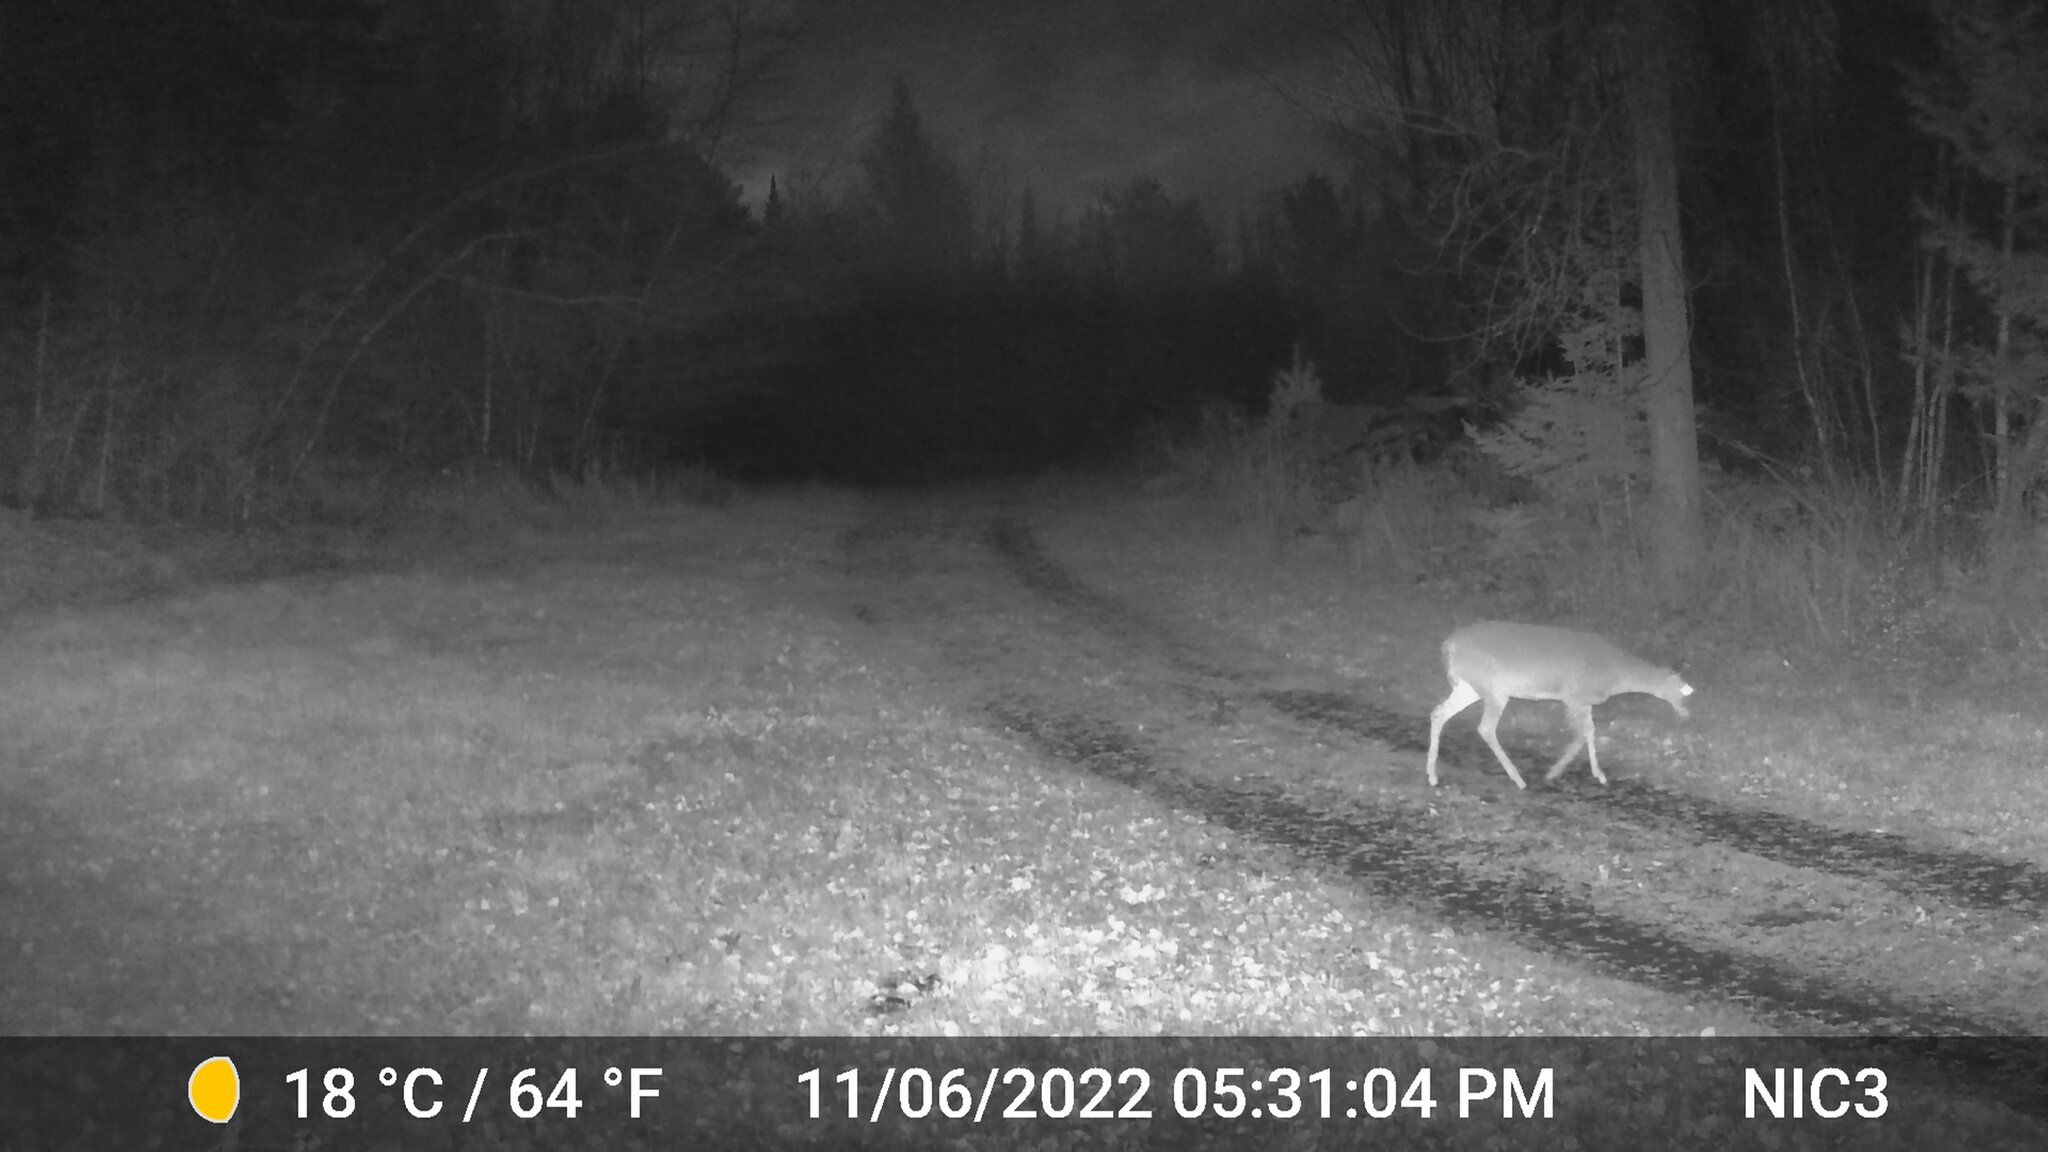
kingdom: Animalia
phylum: Chordata
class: Mammalia
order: Artiodactyla
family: Cervidae
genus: Odocoileus
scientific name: Odocoileus virginianus
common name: White-tailed deer
